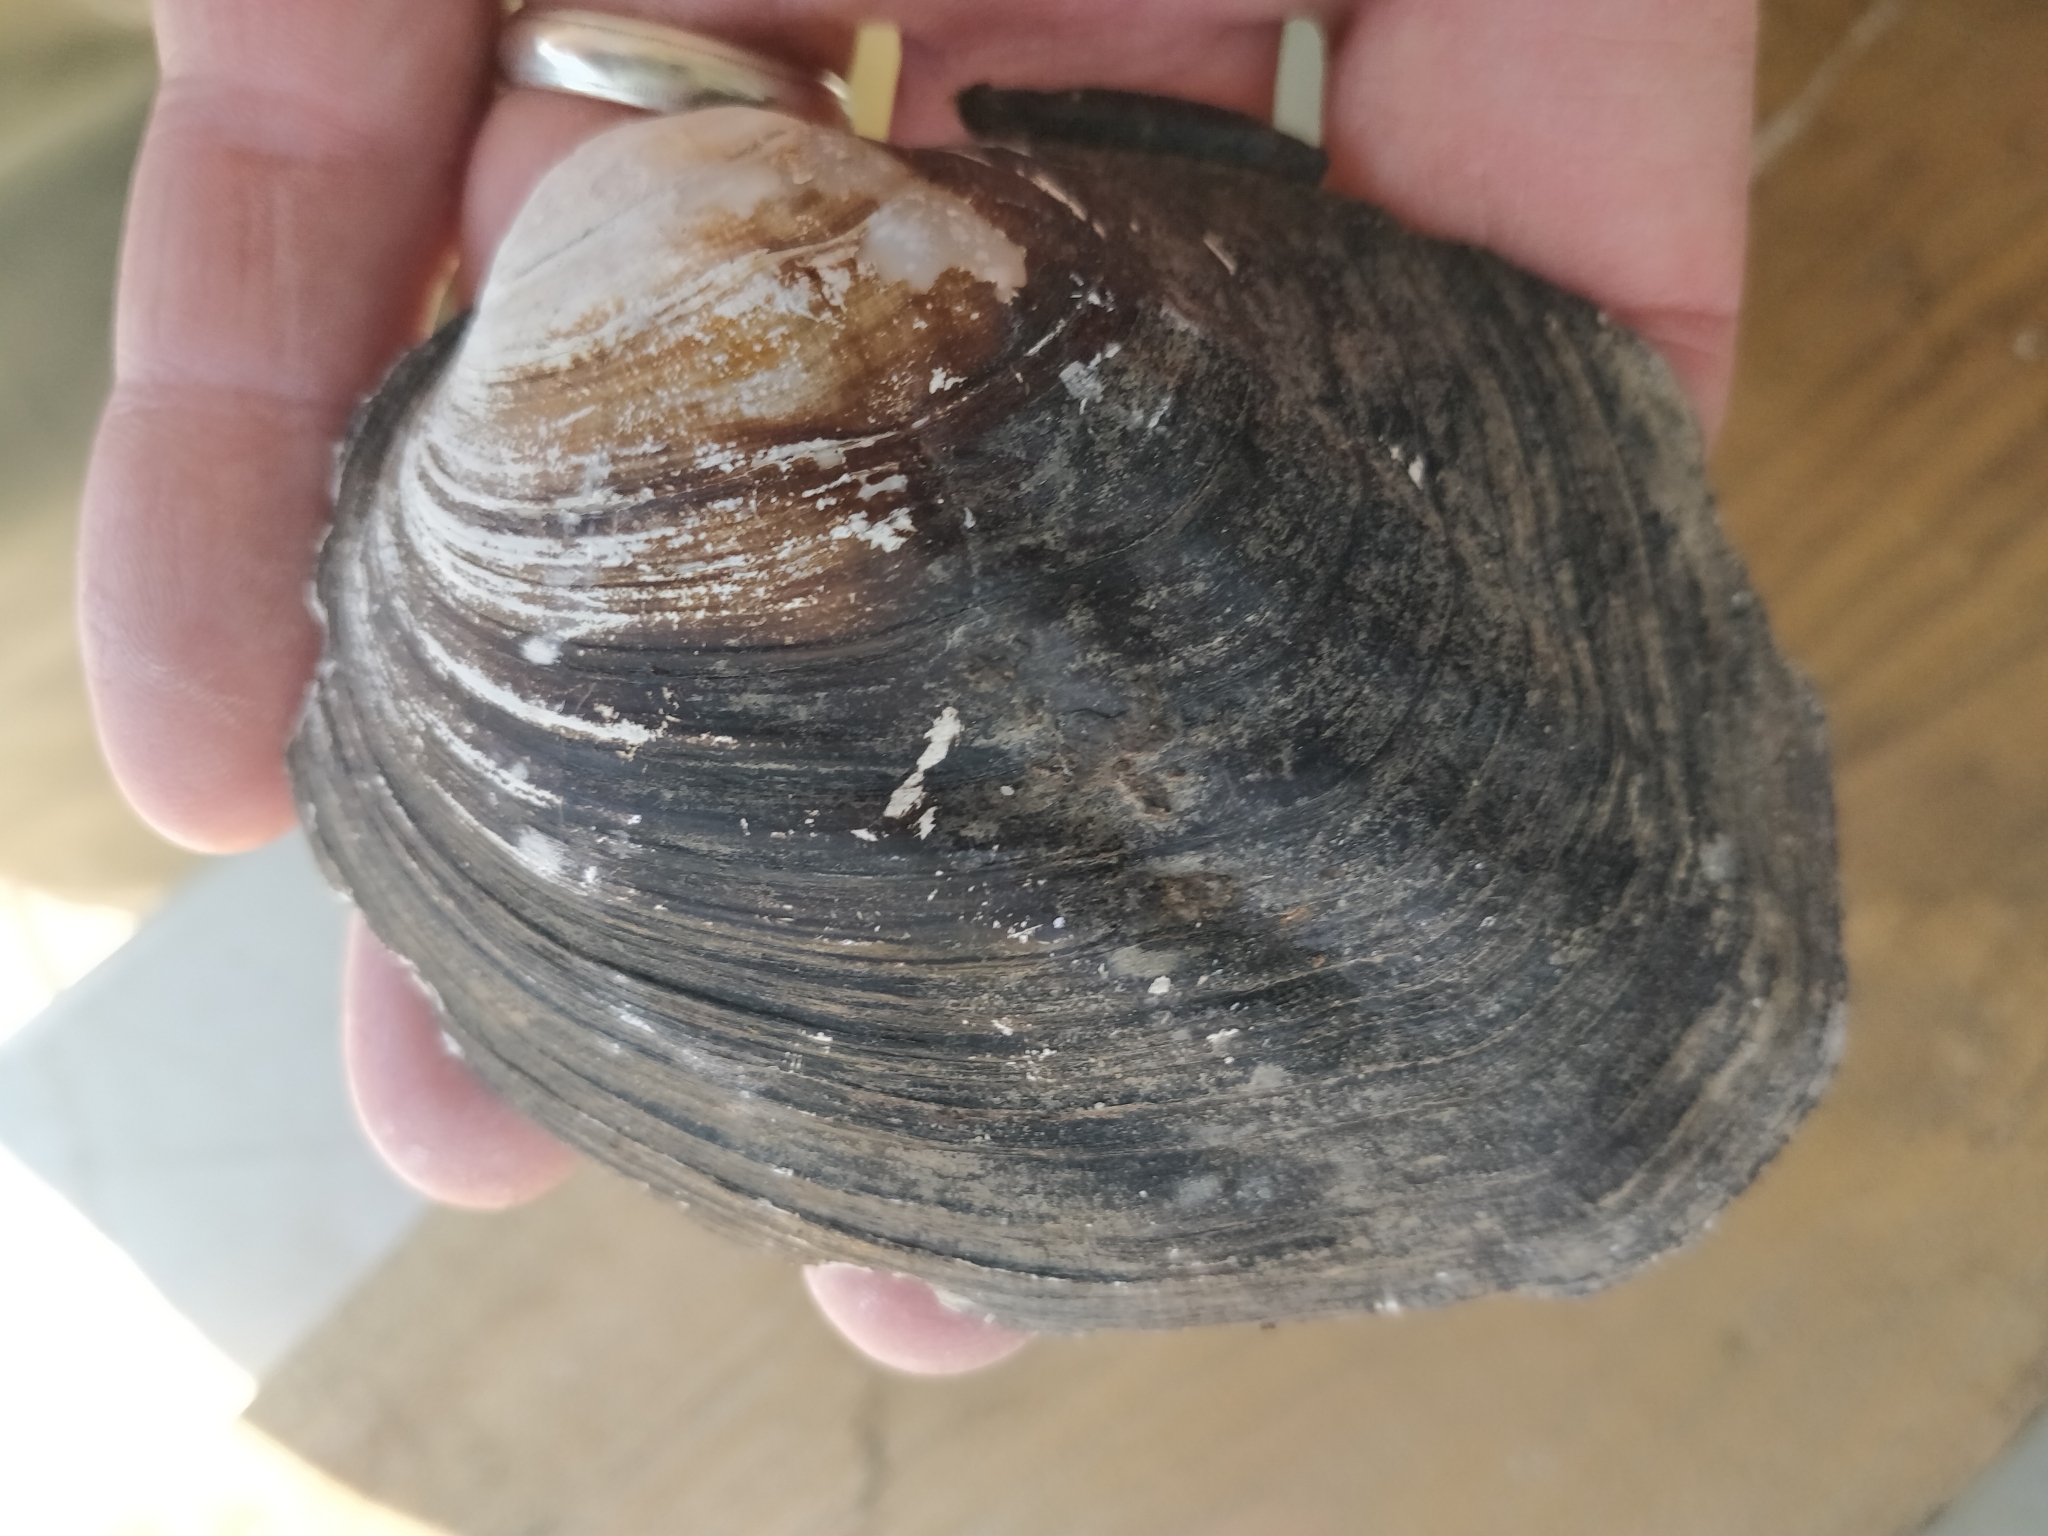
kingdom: Animalia
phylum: Mollusca
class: Bivalvia
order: Unionida
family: Unionidae
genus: Amblema
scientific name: Amblema plicata
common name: Threeridge
